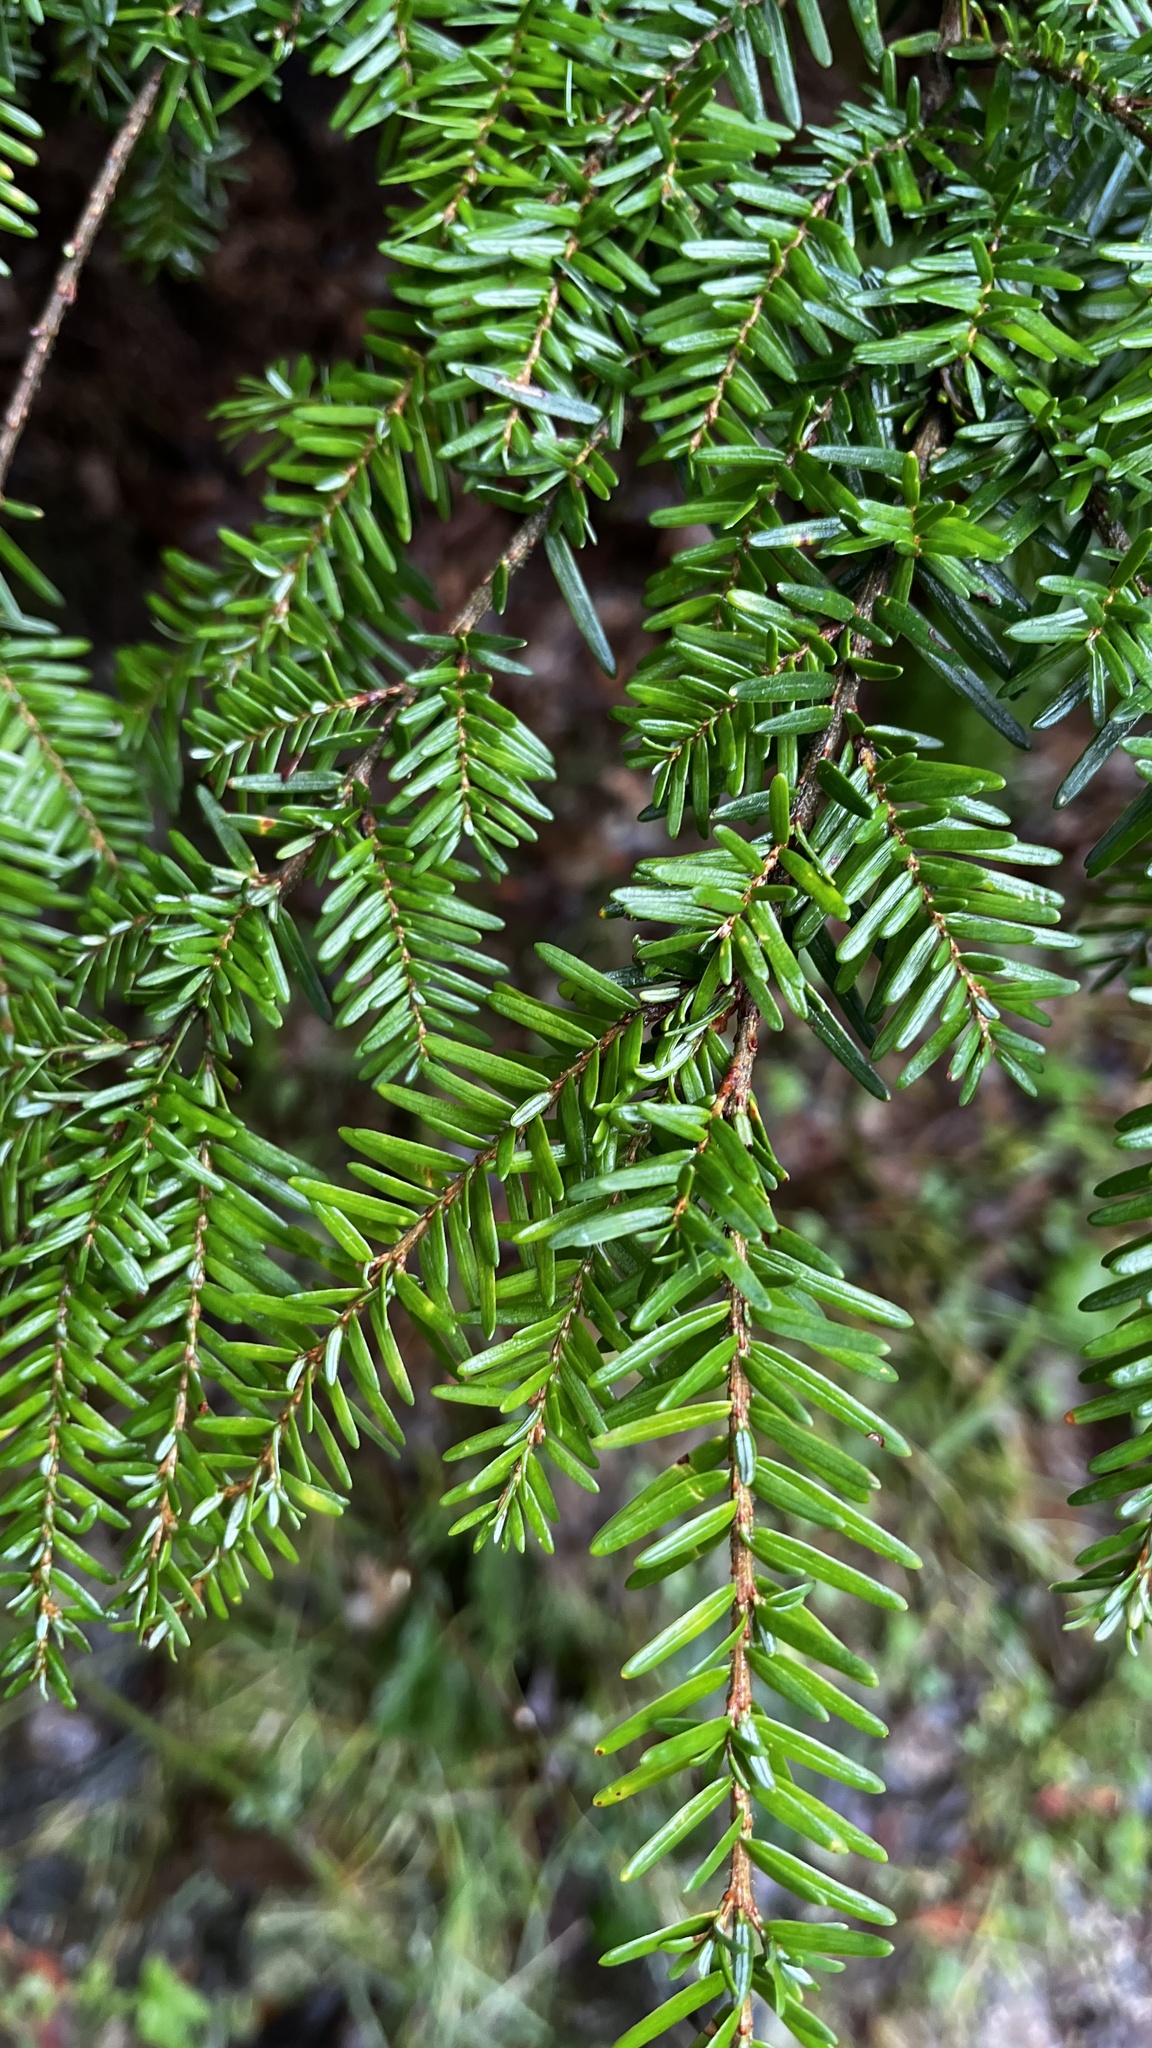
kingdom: Plantae
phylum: Tracheophyta
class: Pinopsida
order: Pinales
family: Pinaceae
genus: Tsuga
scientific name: Tsuga heterophylla
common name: Western hemlock
